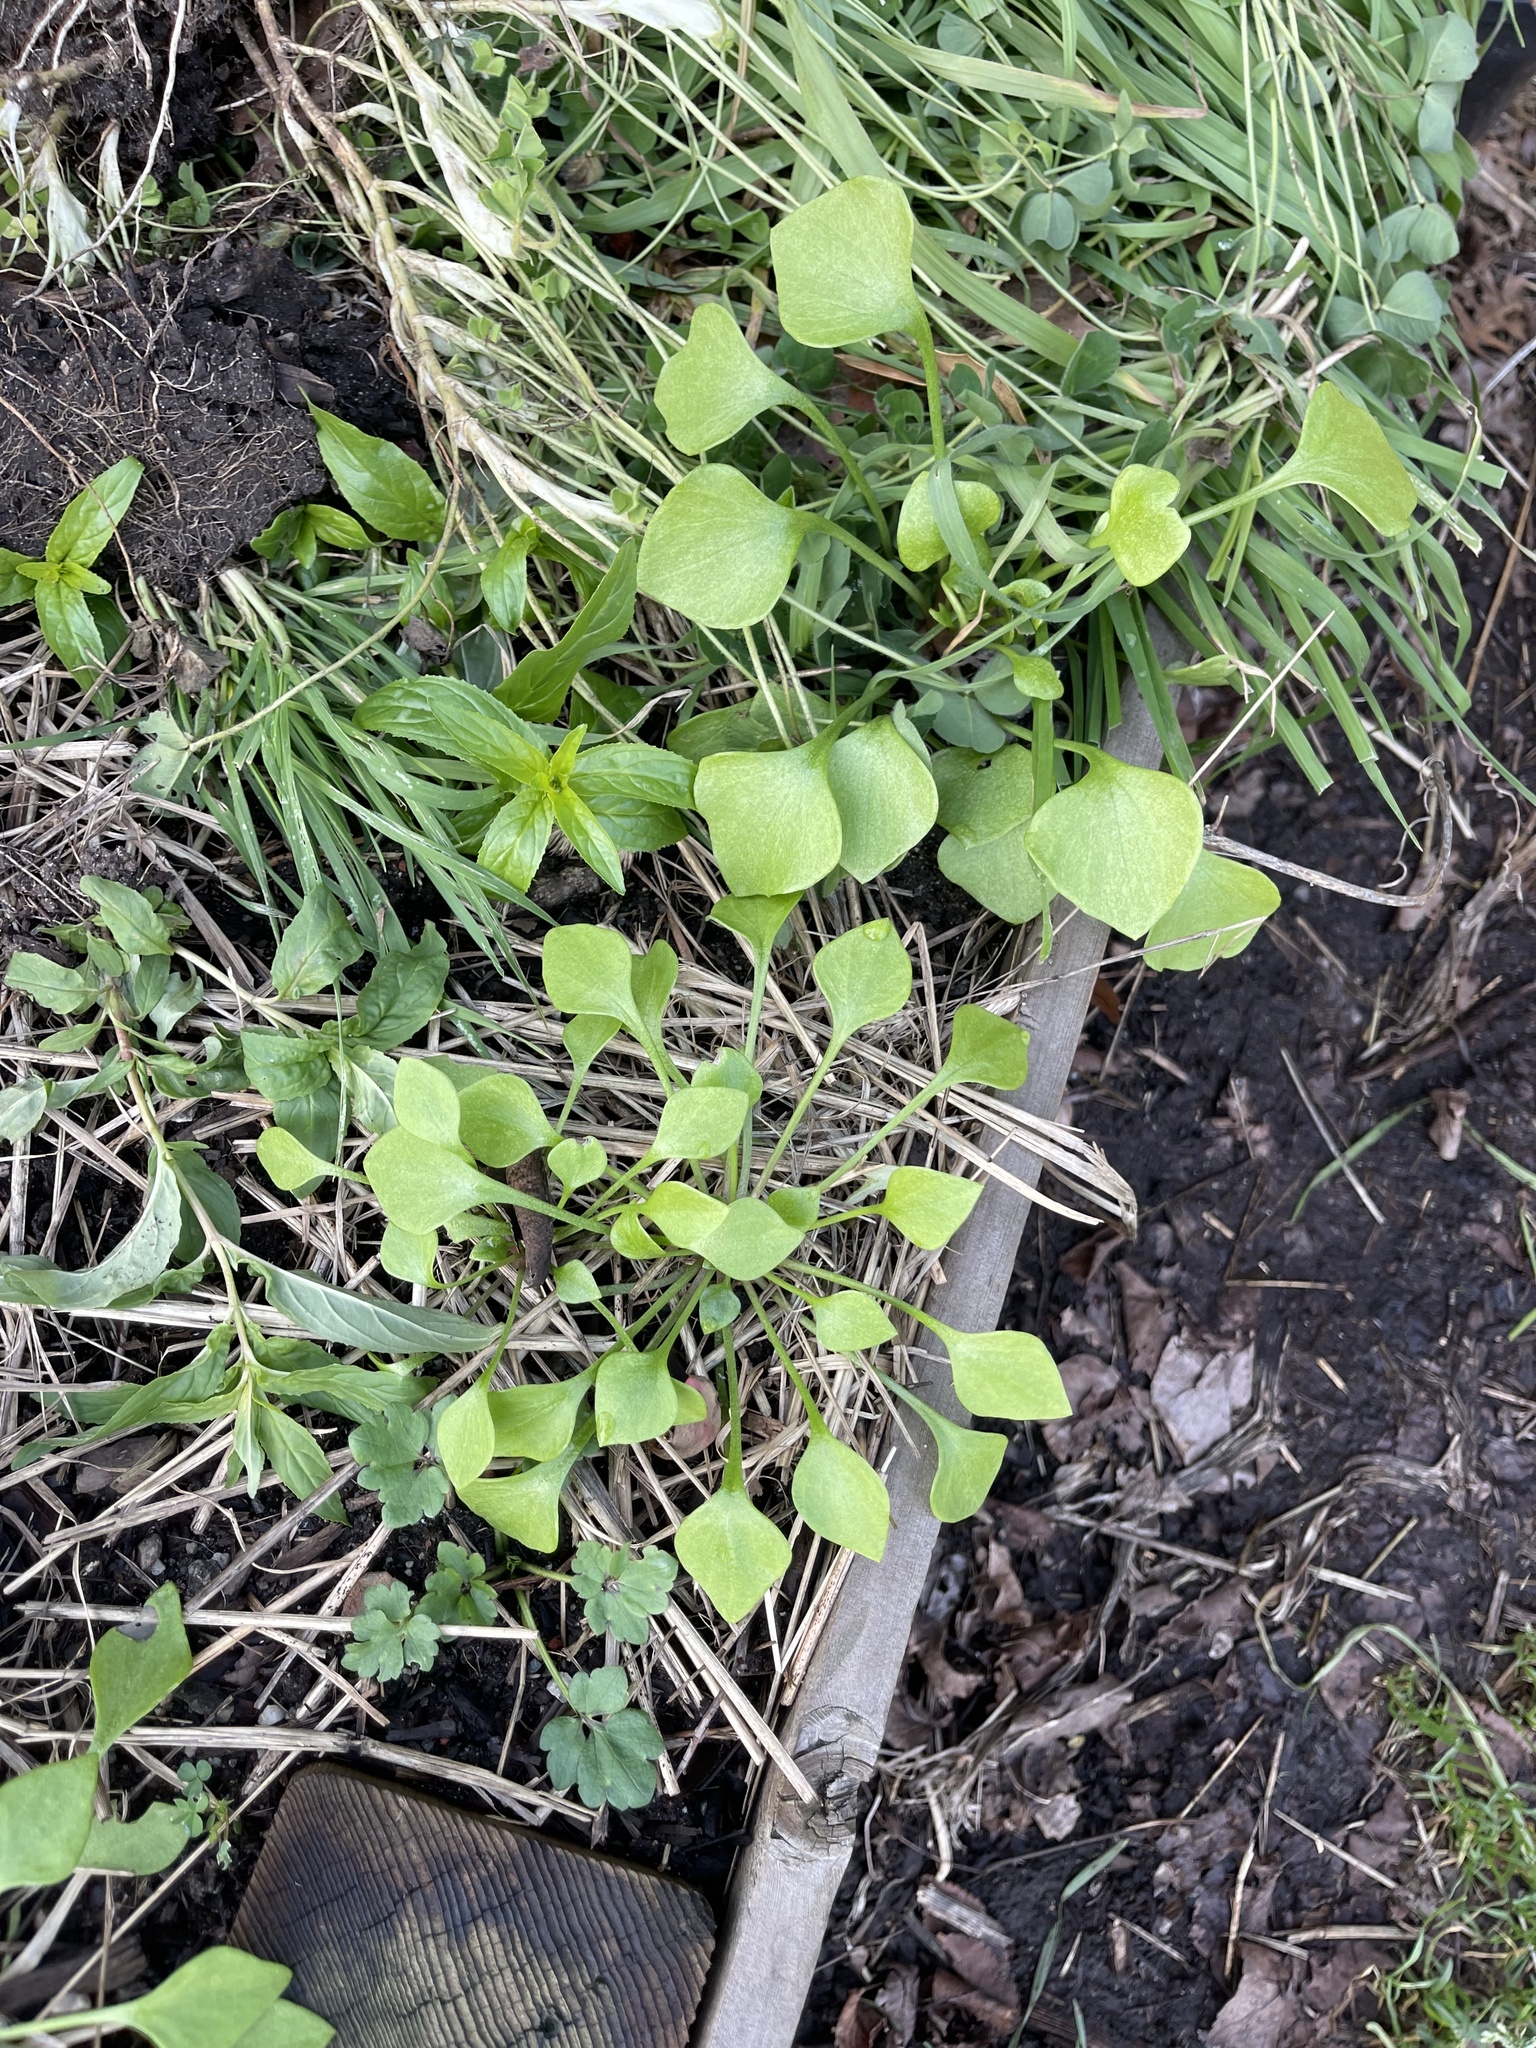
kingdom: Plantae
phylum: Tracheophyta
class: Magnoliopsida
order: Caryophyllales
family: Montiaceae
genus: Claytonia
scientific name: Claytonia perfoliata
